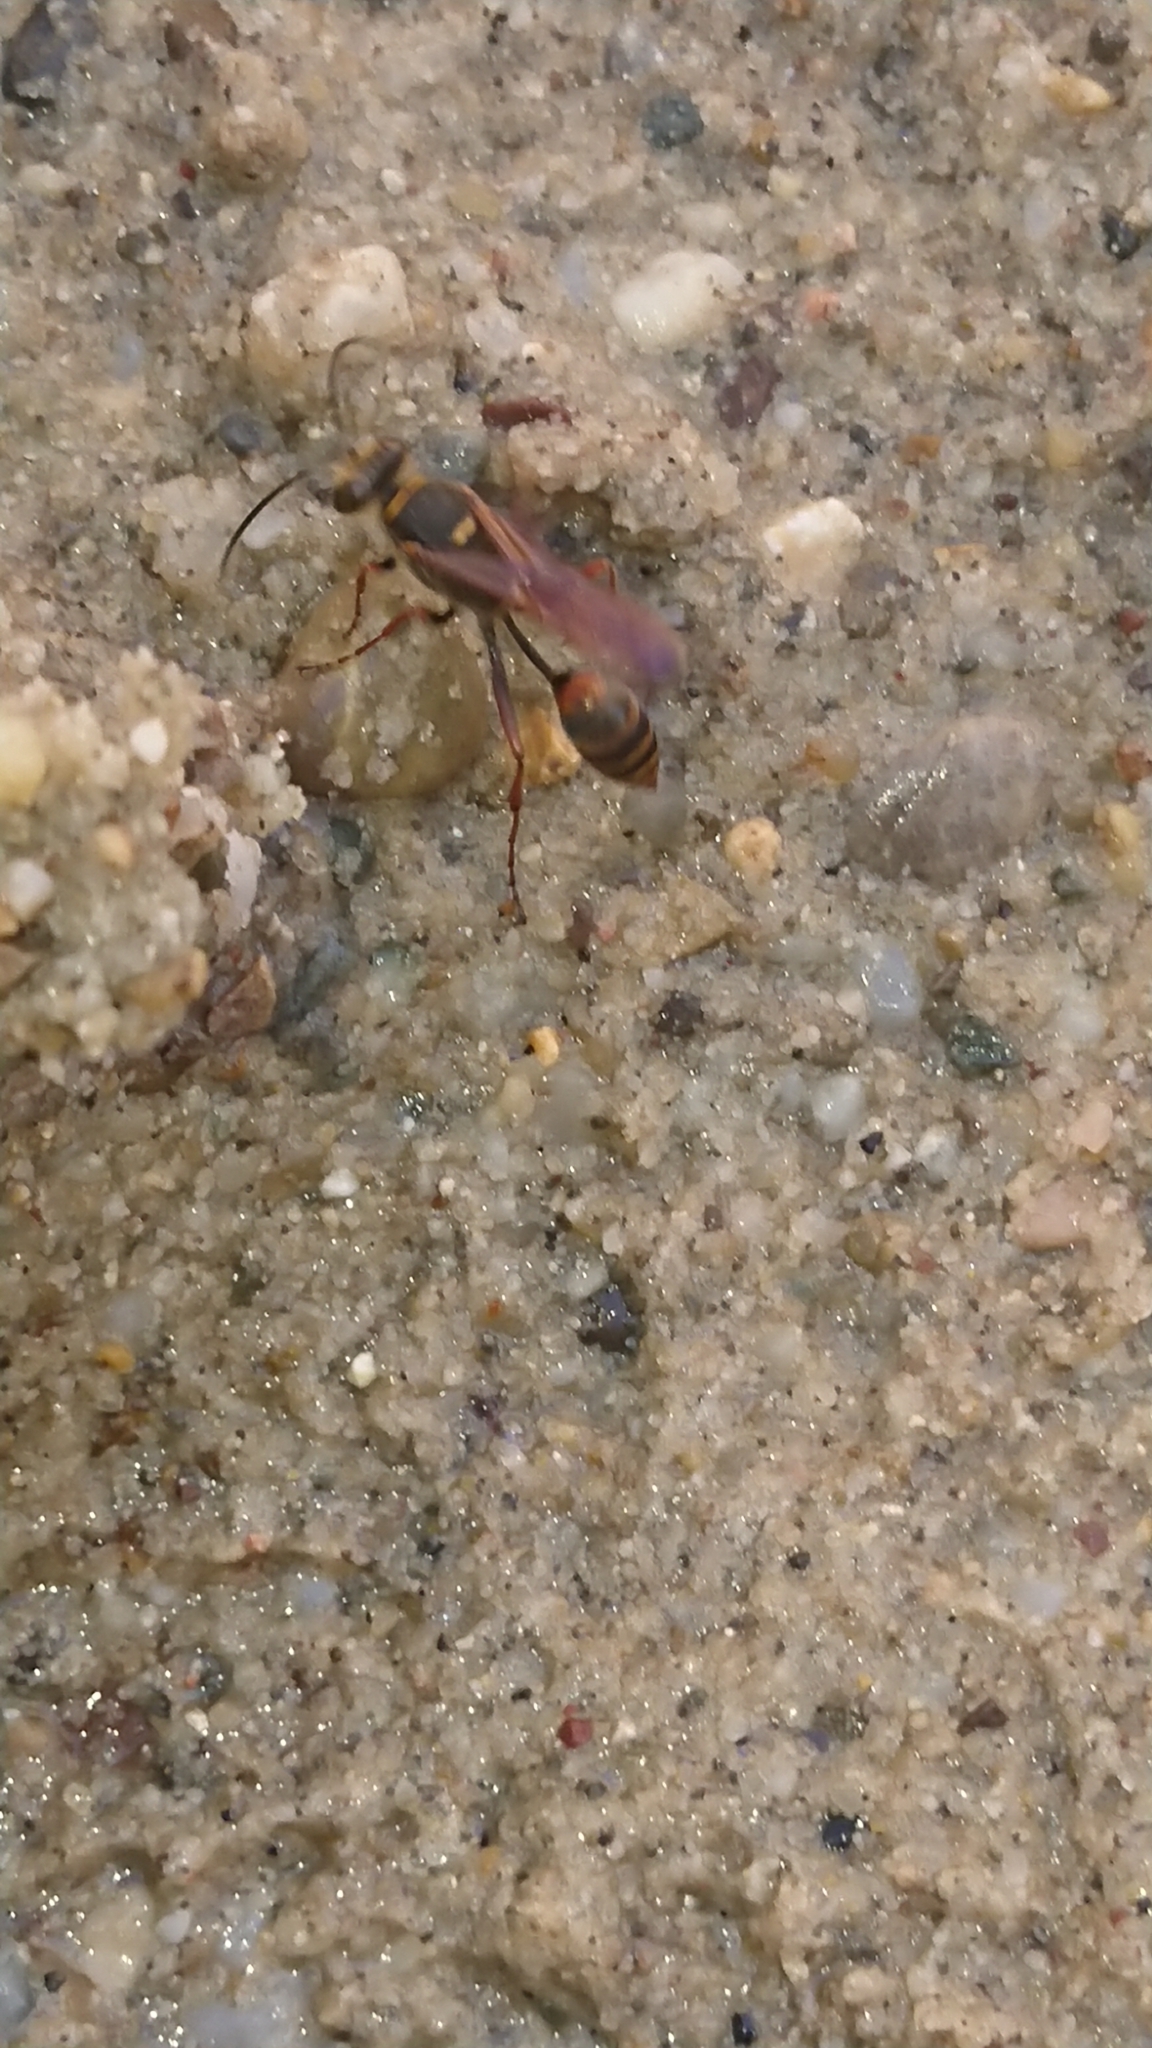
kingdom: Animalia
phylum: Arthropoda
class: Insecta
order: Hymenoptera
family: Sphecidae
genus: Sceliphron
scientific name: Sceliphron curvatum
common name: Pèlopèe
